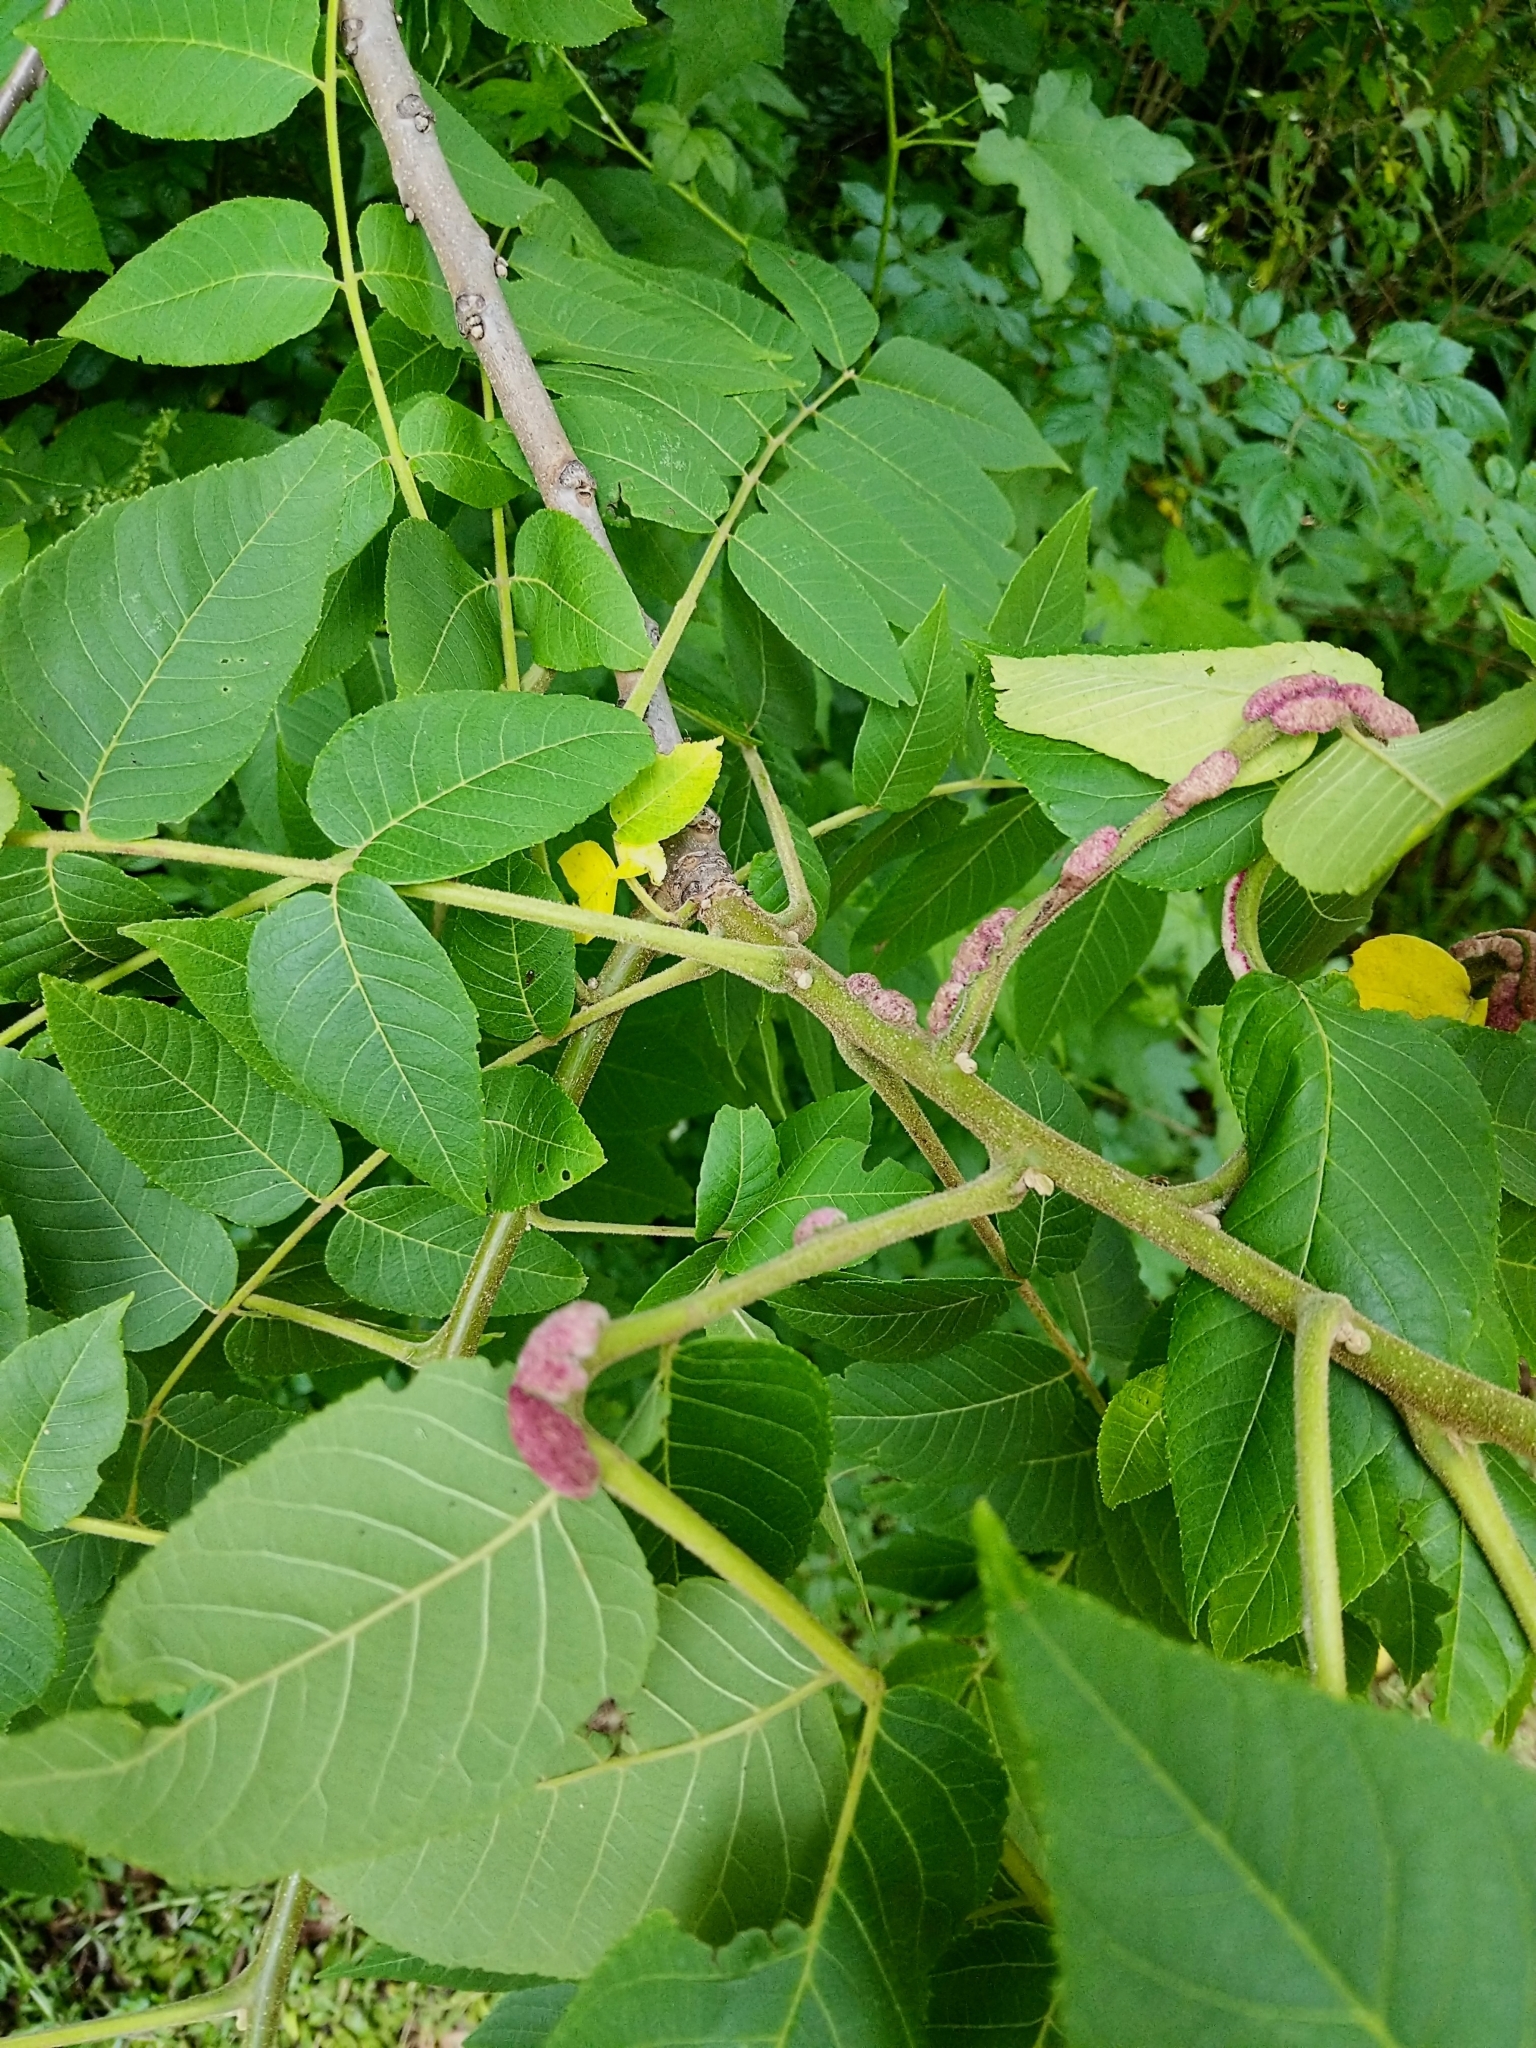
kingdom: Animalia
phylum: Arthropoda
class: Arachnida
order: Trombidiformes
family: Eriophyidae
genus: Aceria
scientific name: Aceria
